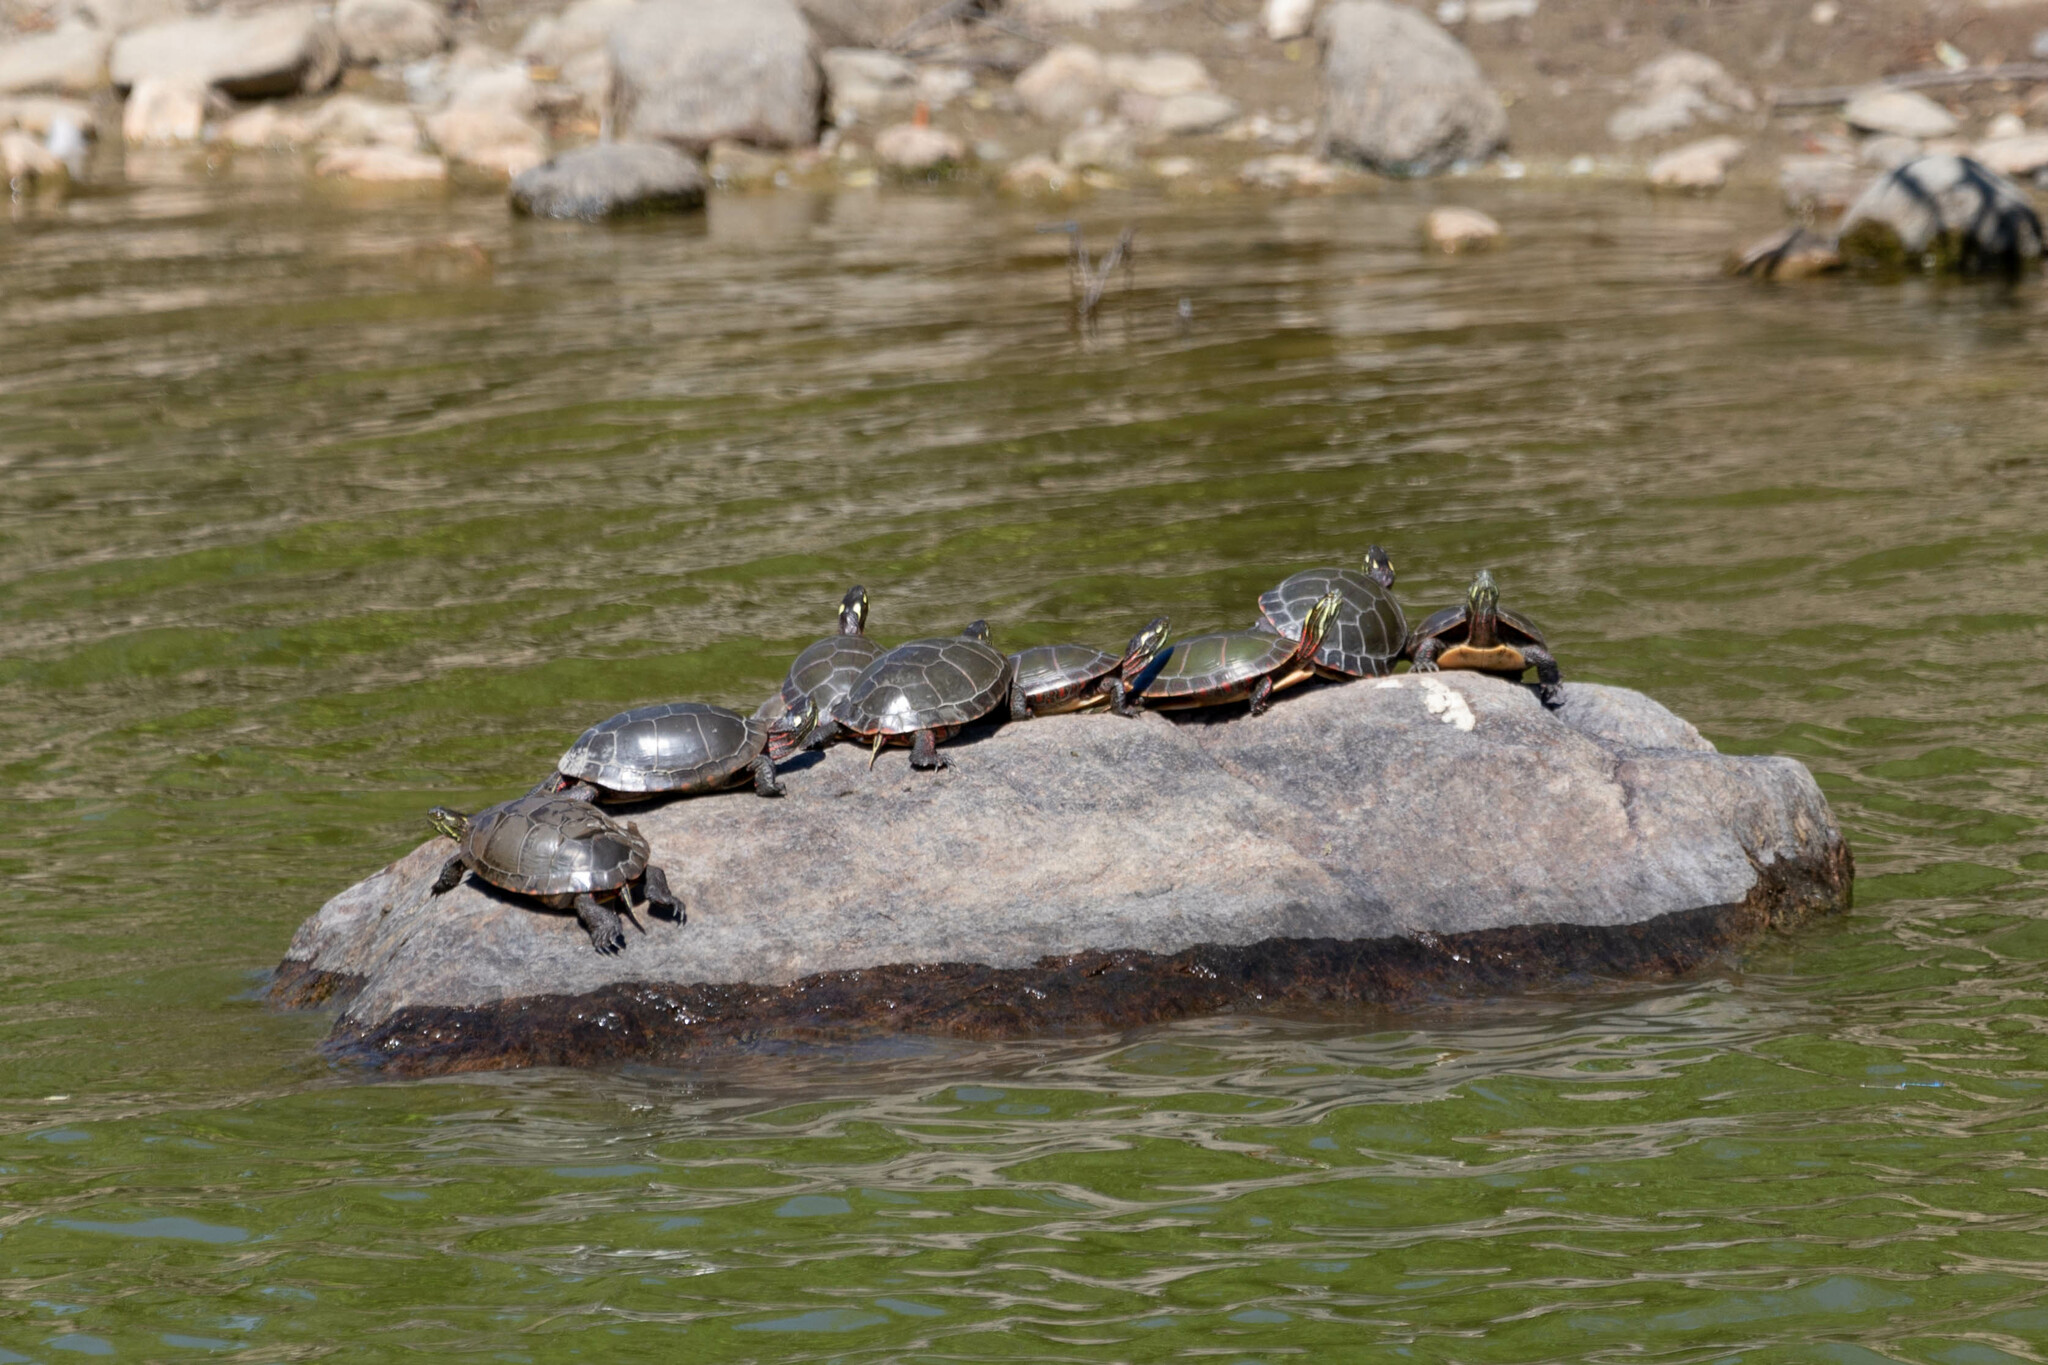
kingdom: Animalia
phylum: Chordata
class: Testudines
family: Emydidae
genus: Chrysemys
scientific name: Chrysemys picta
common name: Painted turtle
